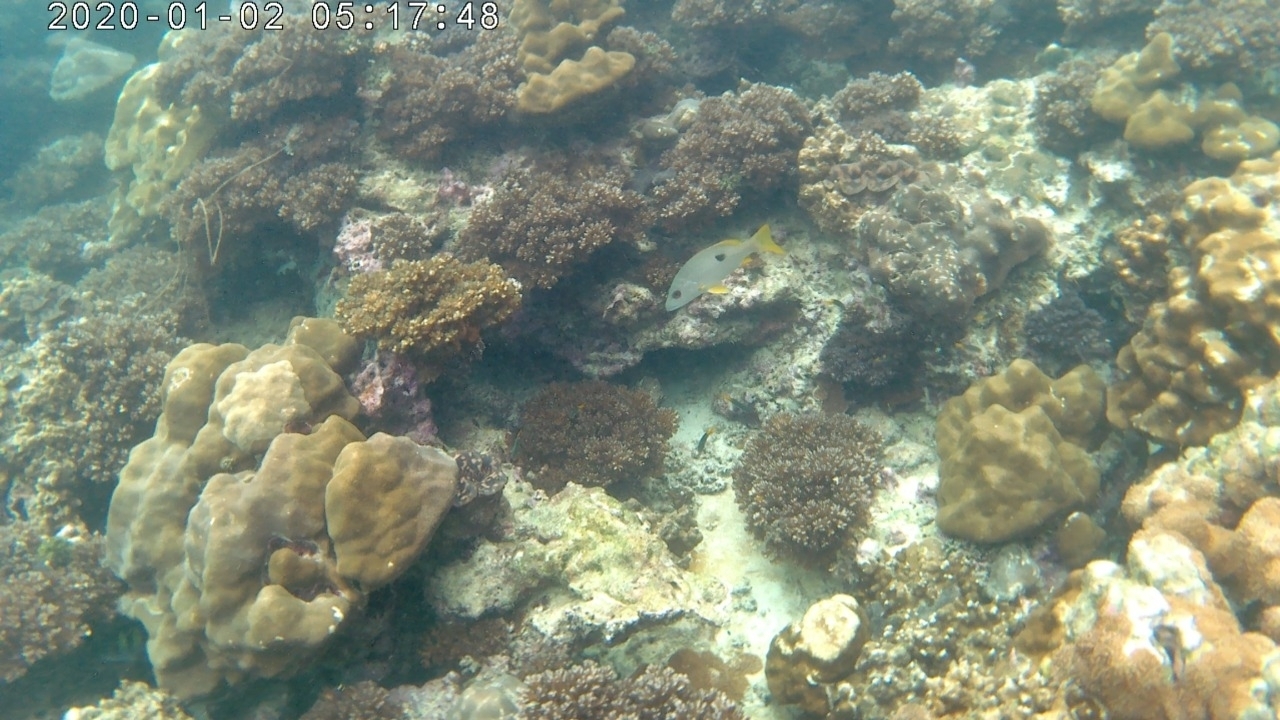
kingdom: Animalia
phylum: Chordata
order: Perciformes
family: Lutjanidae
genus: Lutjanus
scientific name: Lutjanus monostigma
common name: Onespot snapper
